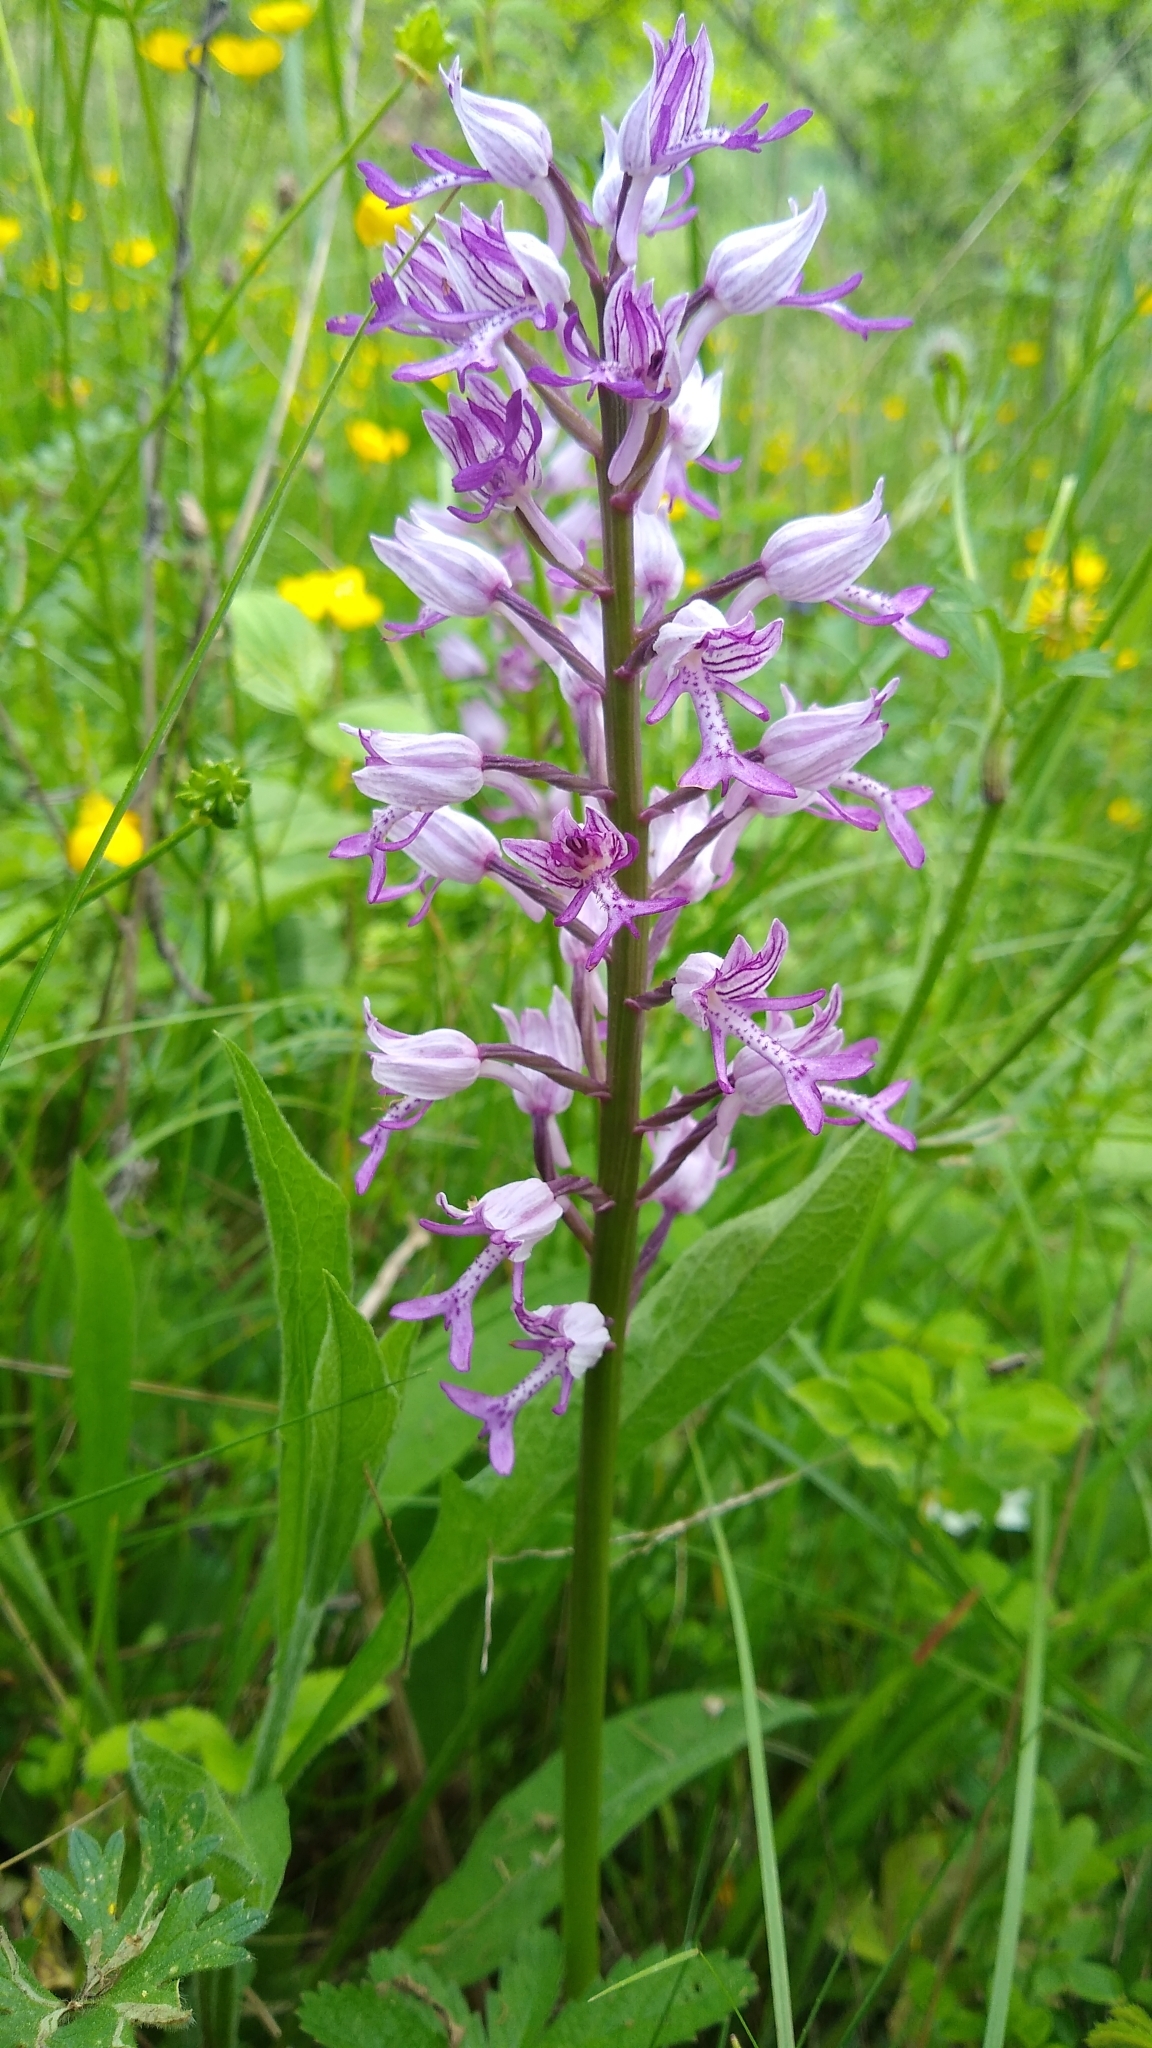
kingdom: Plantae
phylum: Tracheophyta
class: Liliopsida
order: Asparagales
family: Orchidaceae
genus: Orchis
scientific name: Orchis militaris
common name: Military orchid
